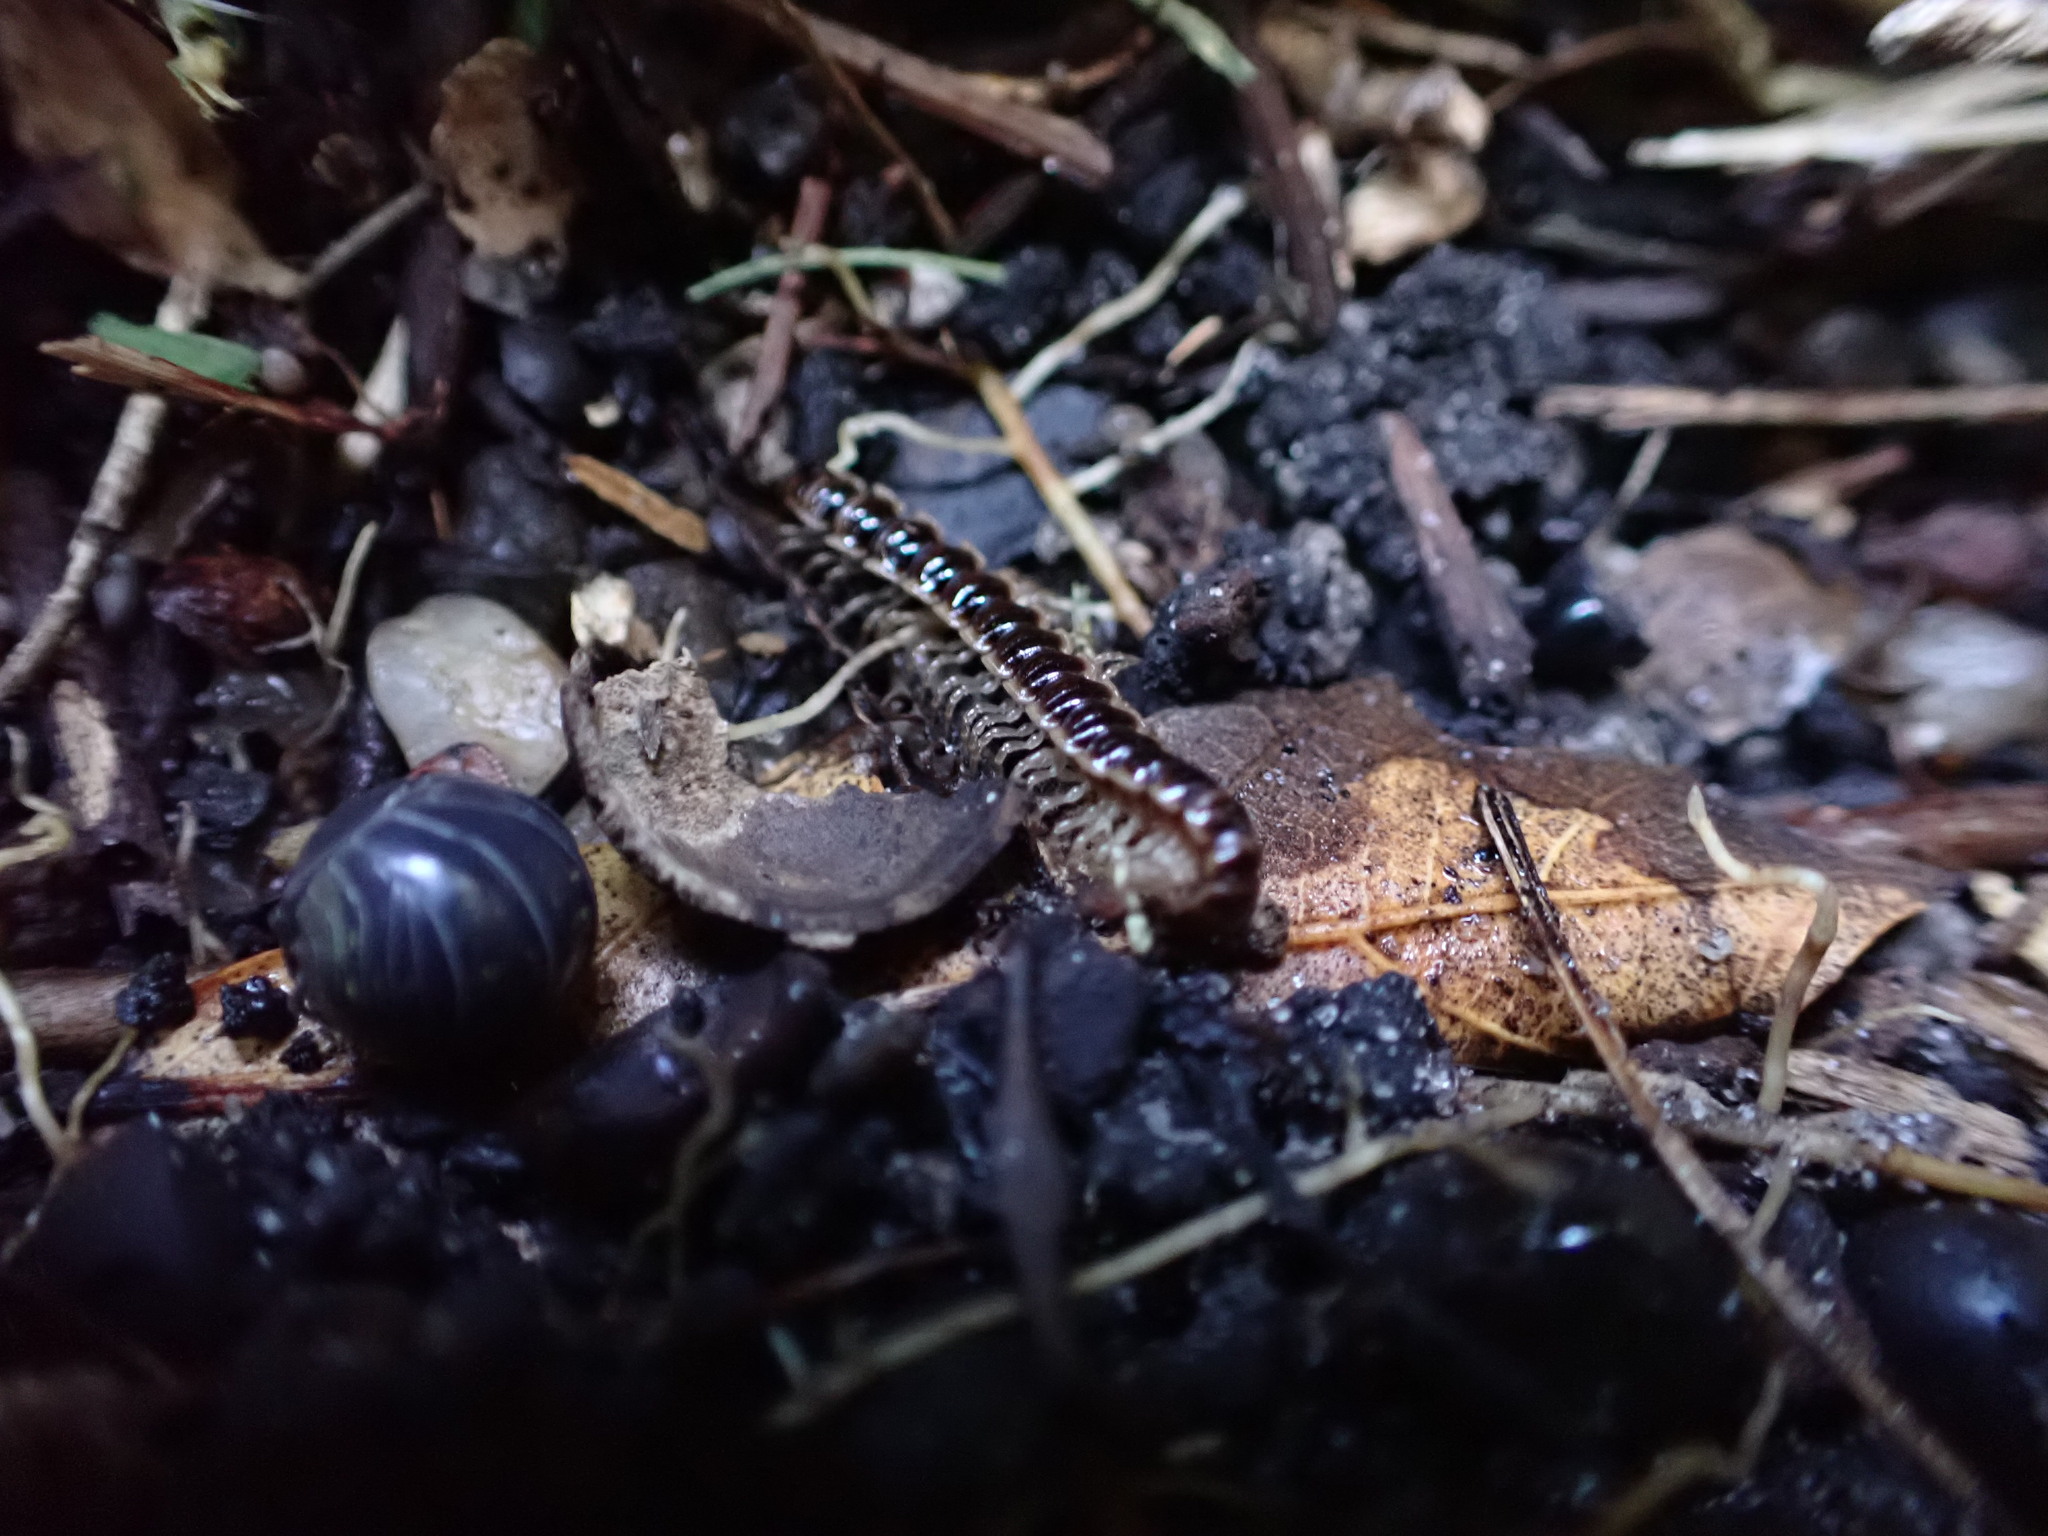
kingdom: Animalia
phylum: Arthropoda
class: Diplopoda
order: Polydesmida
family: Paradoxosomatidae
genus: Oxidus
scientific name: Oxidus gracilis
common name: Greenhouse millipede
